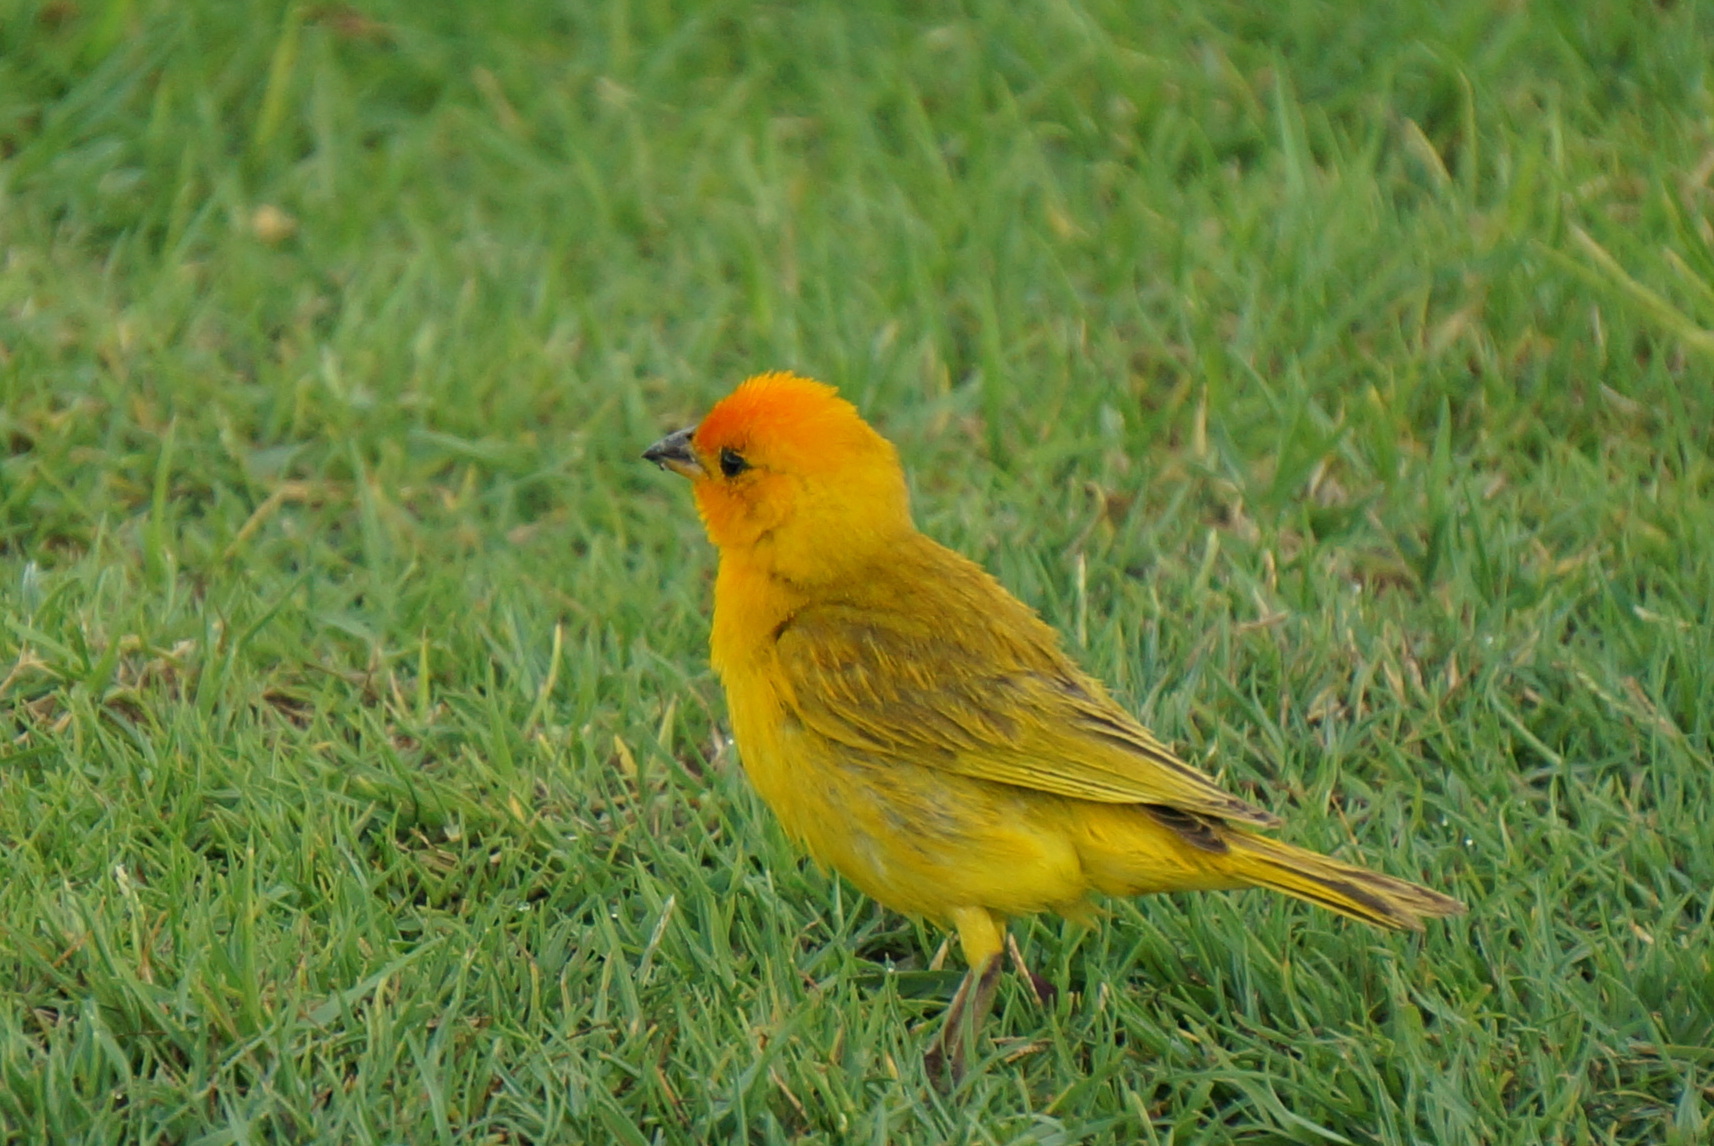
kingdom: Animalia
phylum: Chordata
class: Aves
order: Passeriformes
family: Thraupidae
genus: Sicalis
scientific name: Sicalis flaveola
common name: Saffron finch
